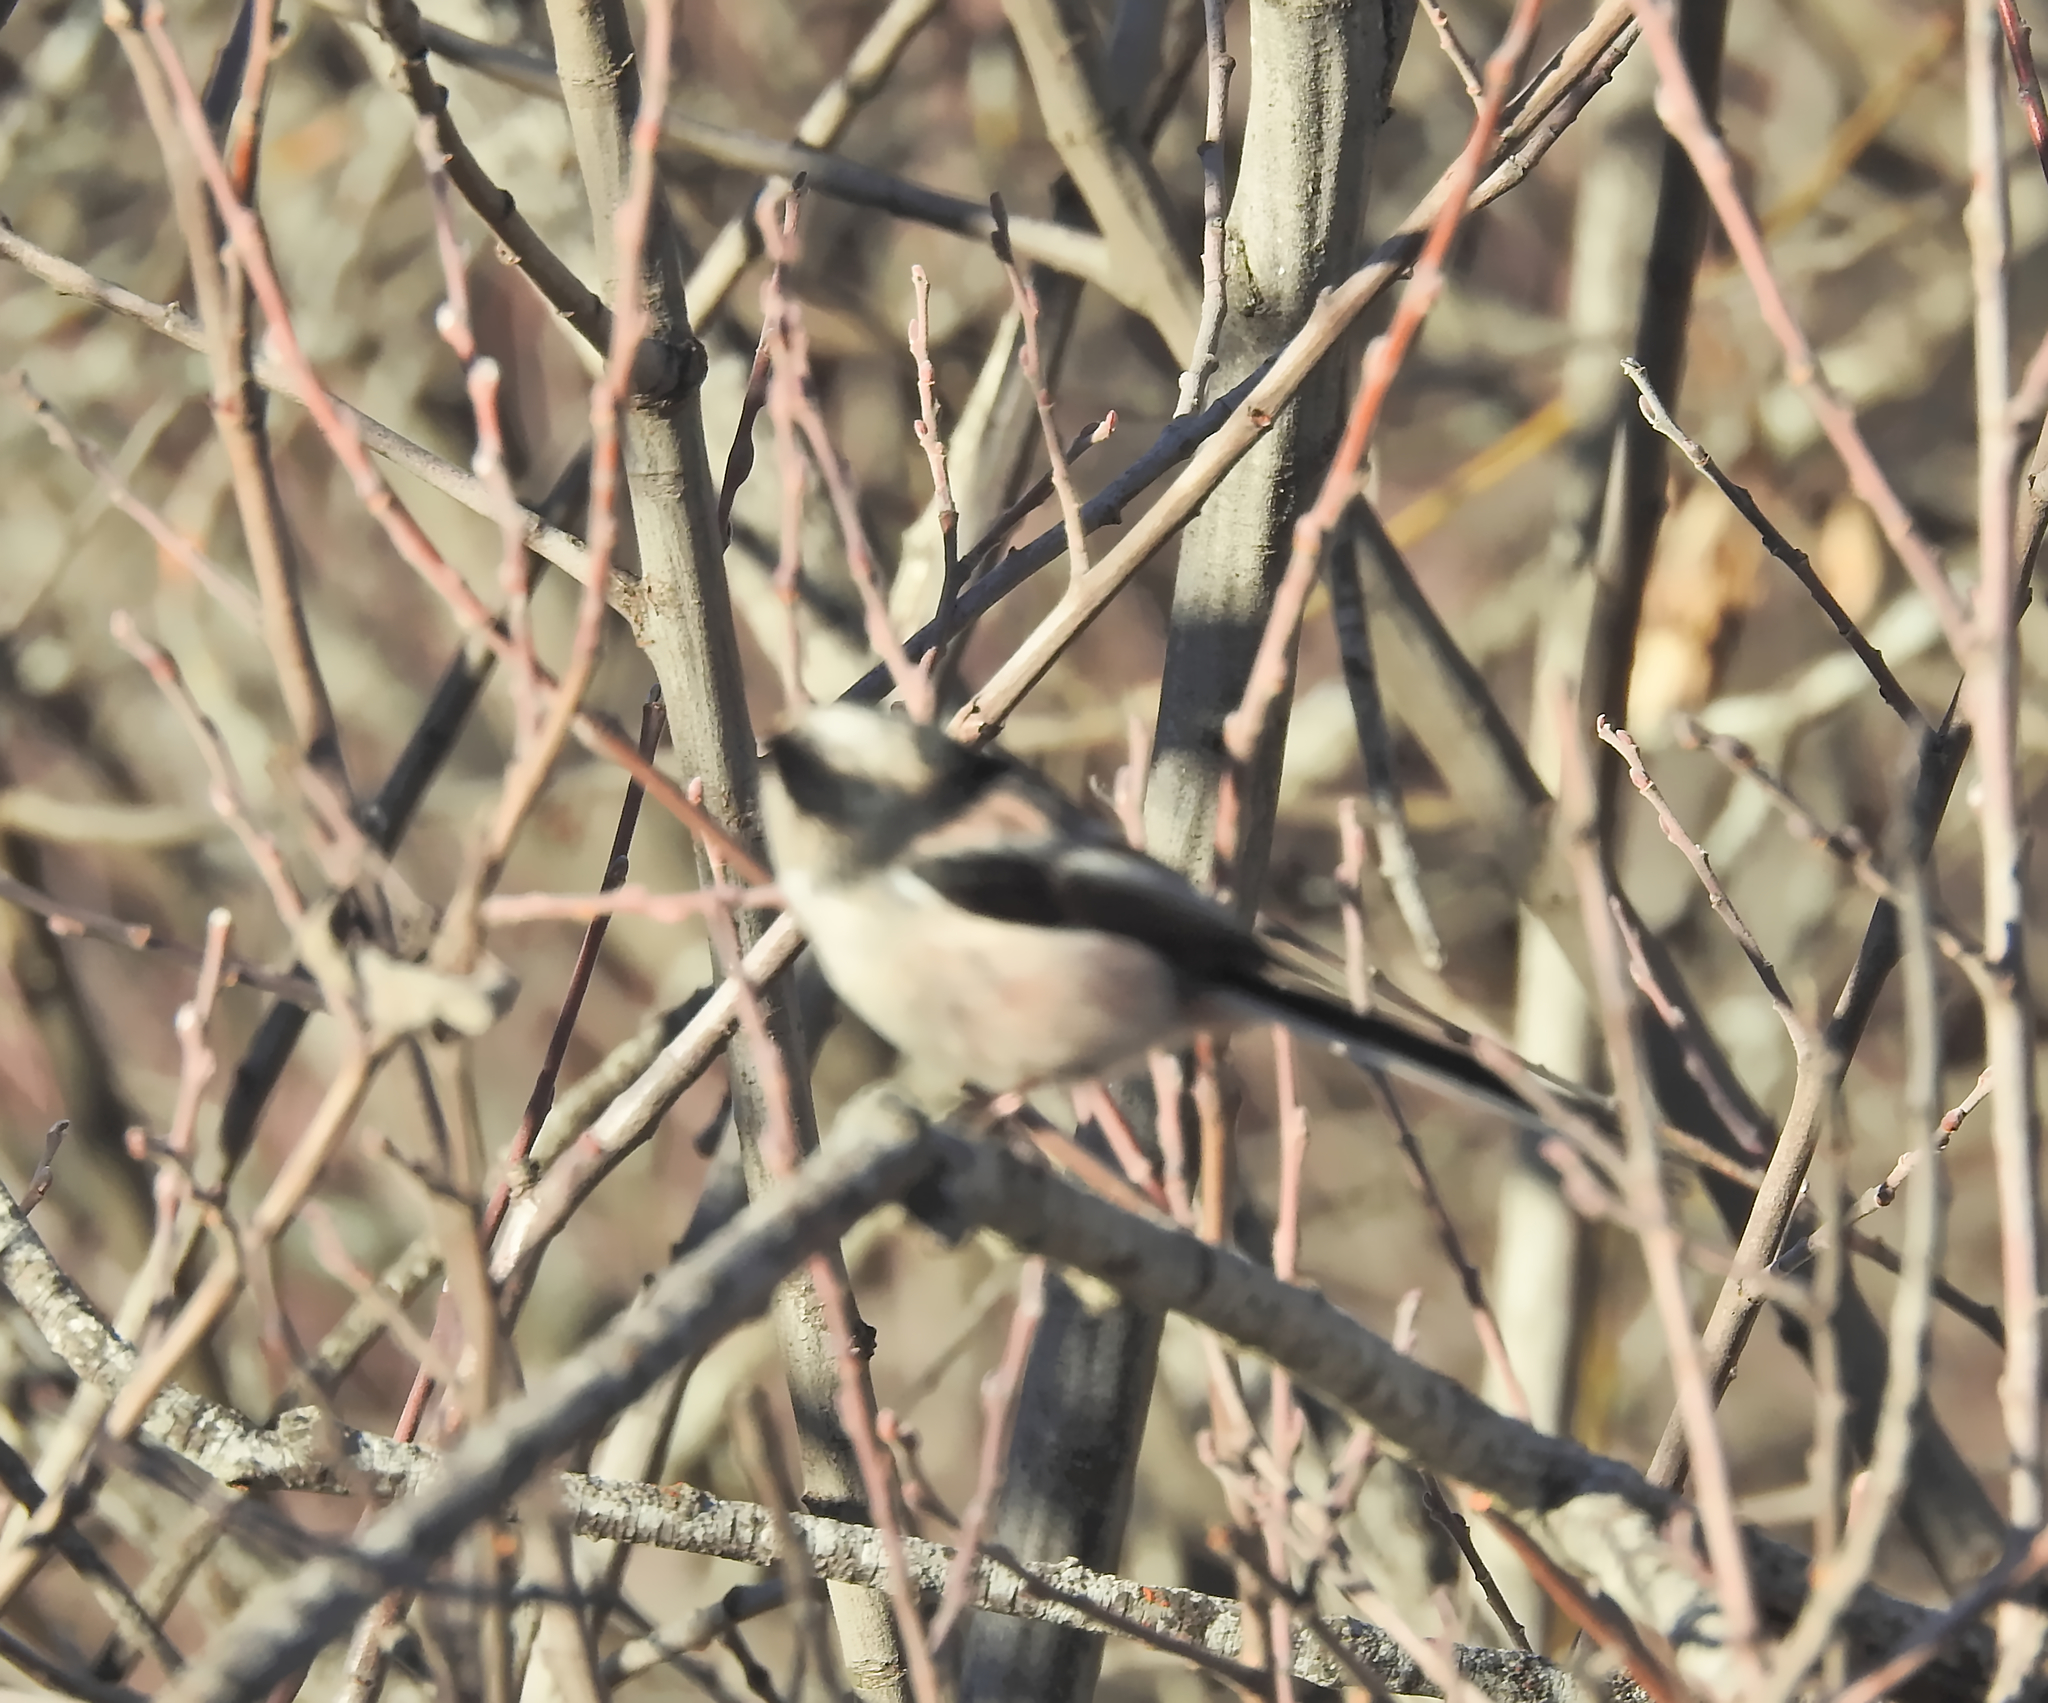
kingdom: Animalia
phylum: Chordata
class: Aves
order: Passeriformes
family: Aegithalidae
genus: Aegithalos
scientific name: Aegithalos caudatus
